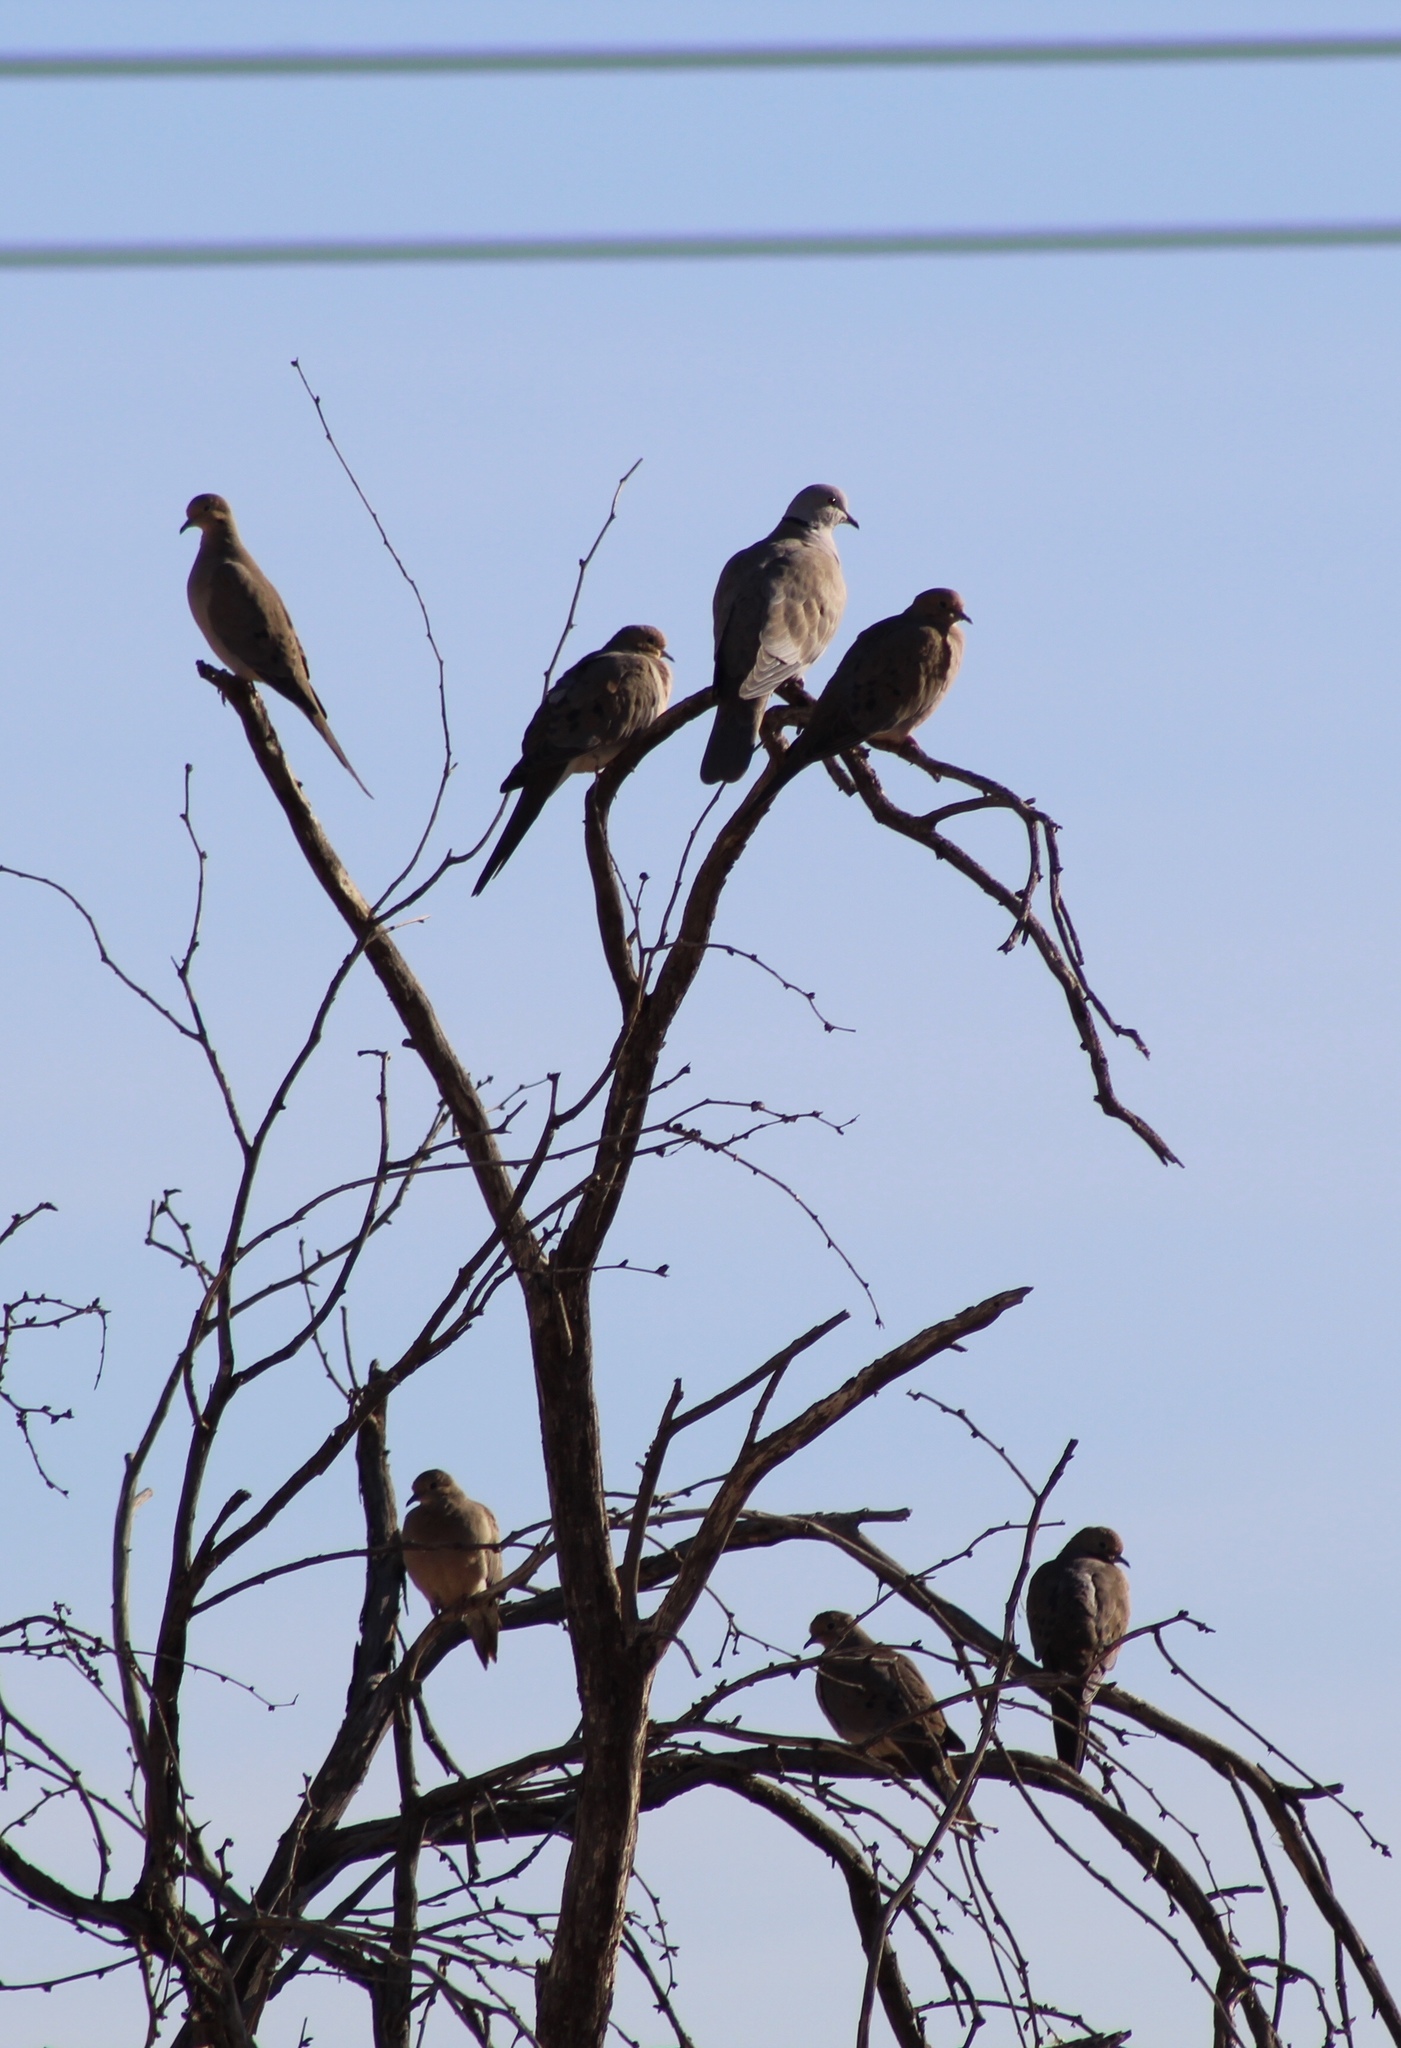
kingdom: Animalia
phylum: Chordata
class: Aves
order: Columbiformes
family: Columbidae
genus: Zenaida
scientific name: Zenaida macroura
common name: Mourning dove
